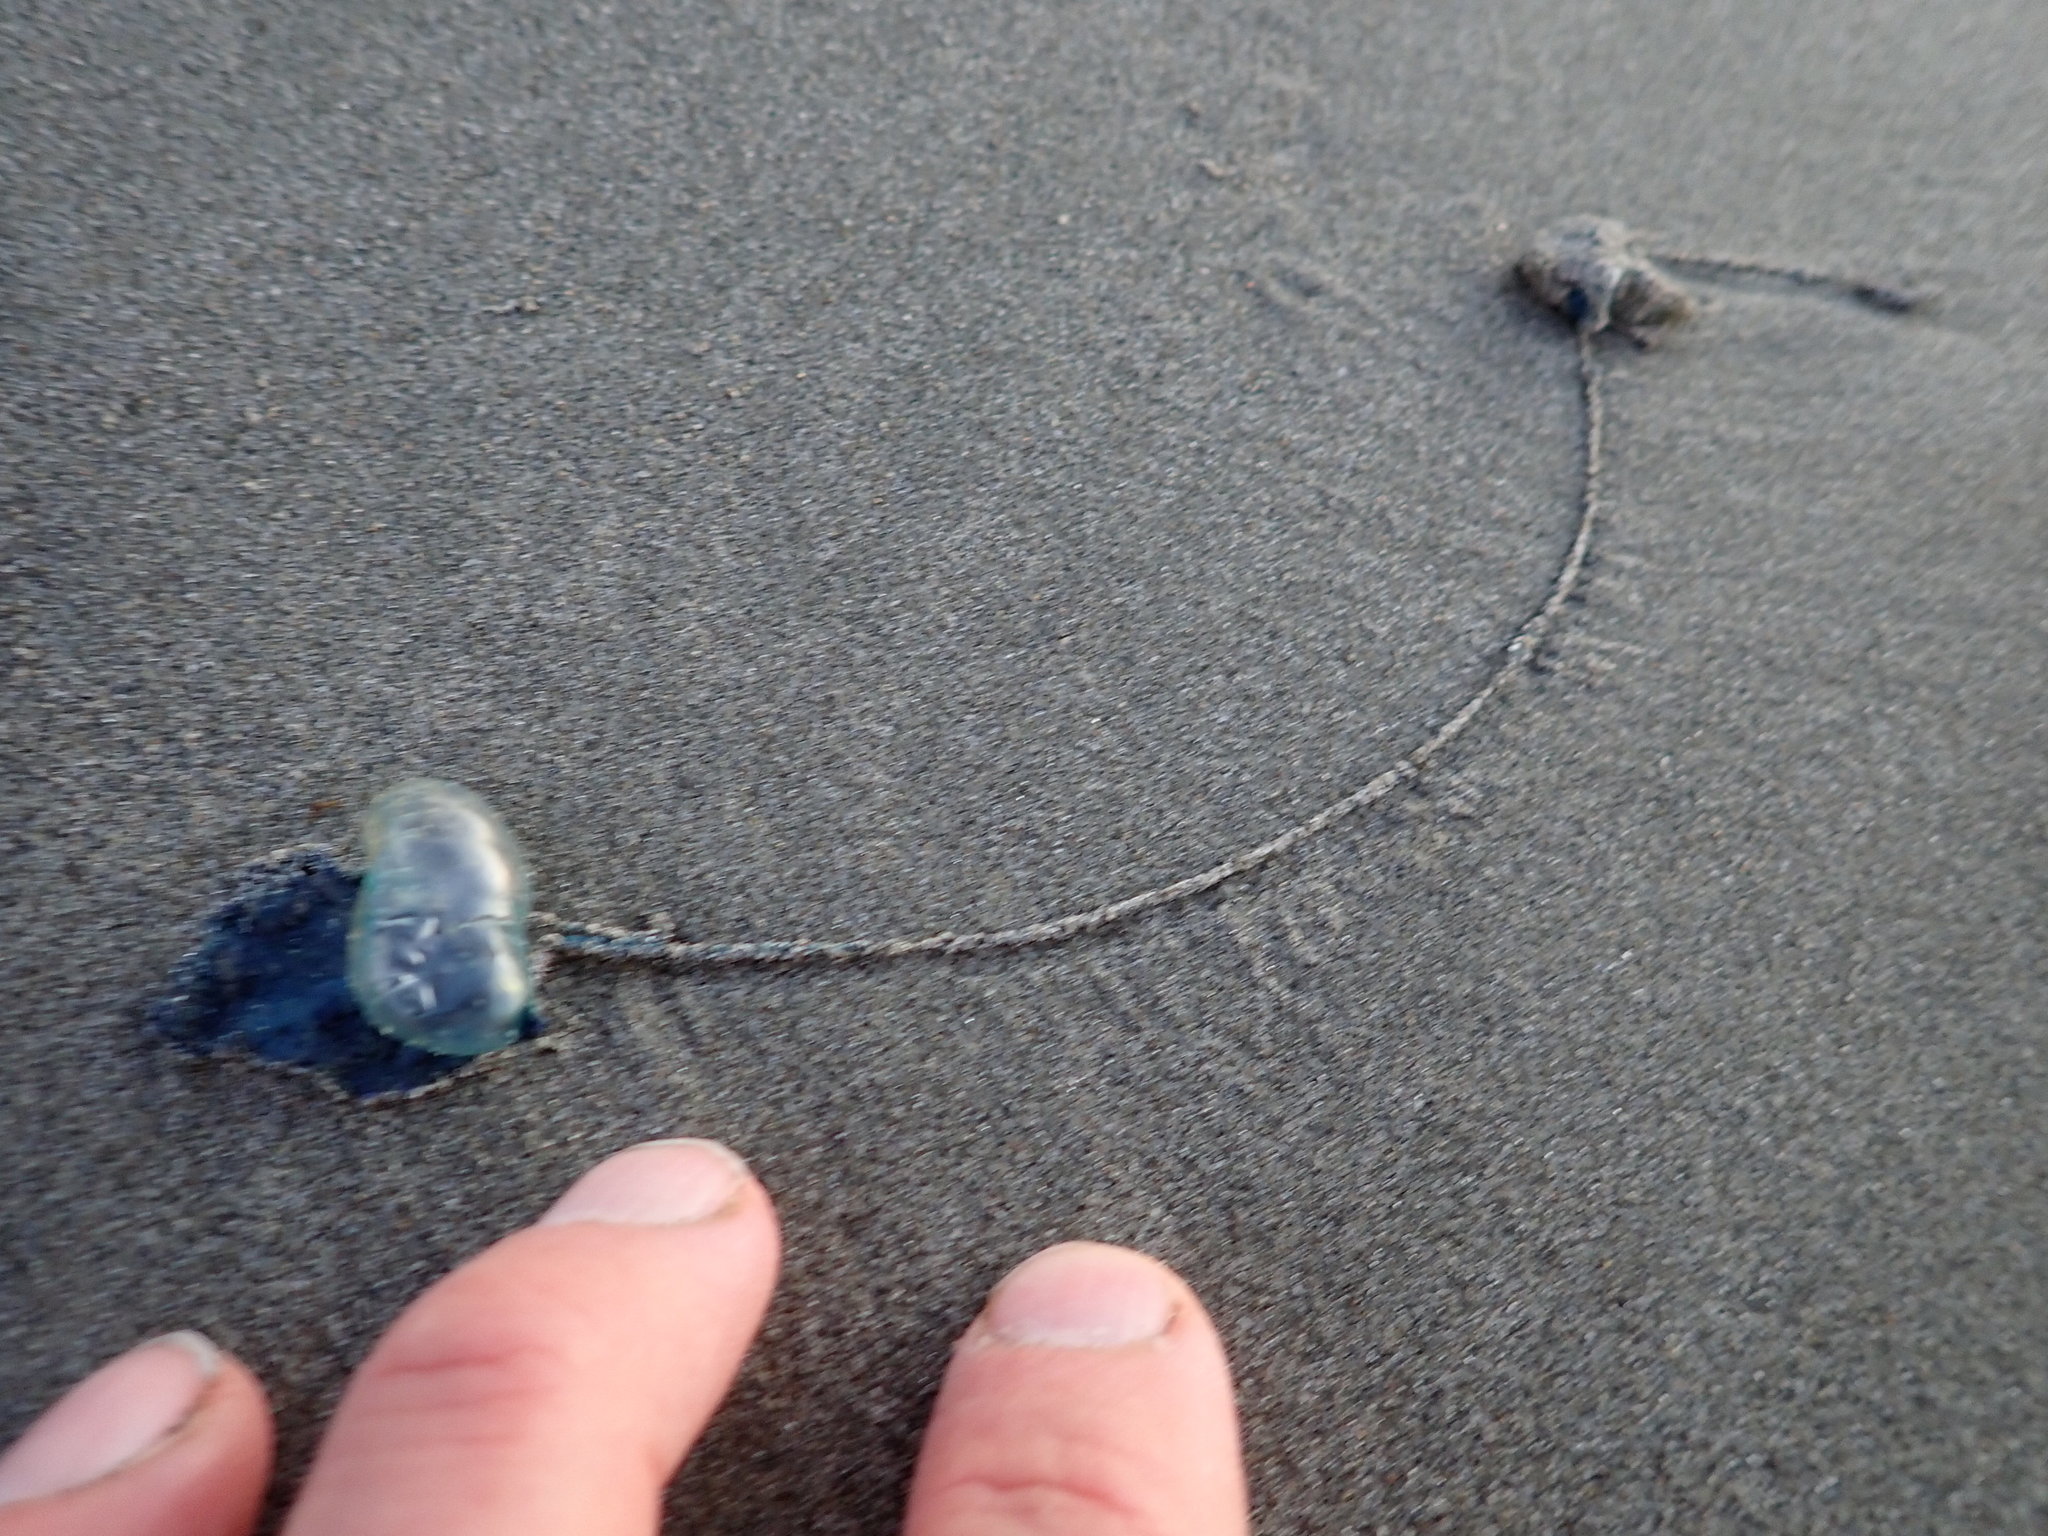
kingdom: Animalia
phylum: Cnidaria
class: Hydrozoa
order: Siphonophorae
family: Physaliidae
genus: Physalia
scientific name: Physalia physalis
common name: Portuguese man-of-war
